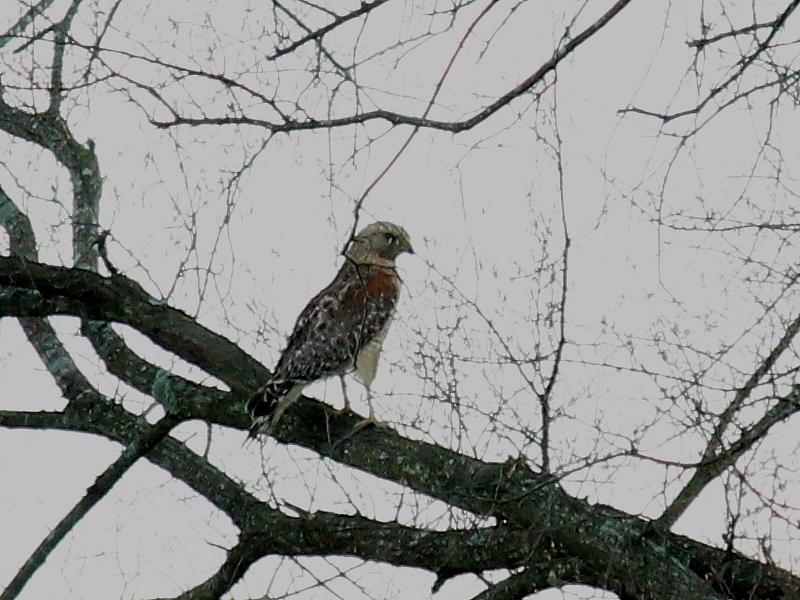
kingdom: Animalia
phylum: Chordata
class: Aves
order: Accipitriformes
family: Accipitridae
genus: Buteo
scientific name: Buteo lineatus
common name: Red-shouldered hawk
